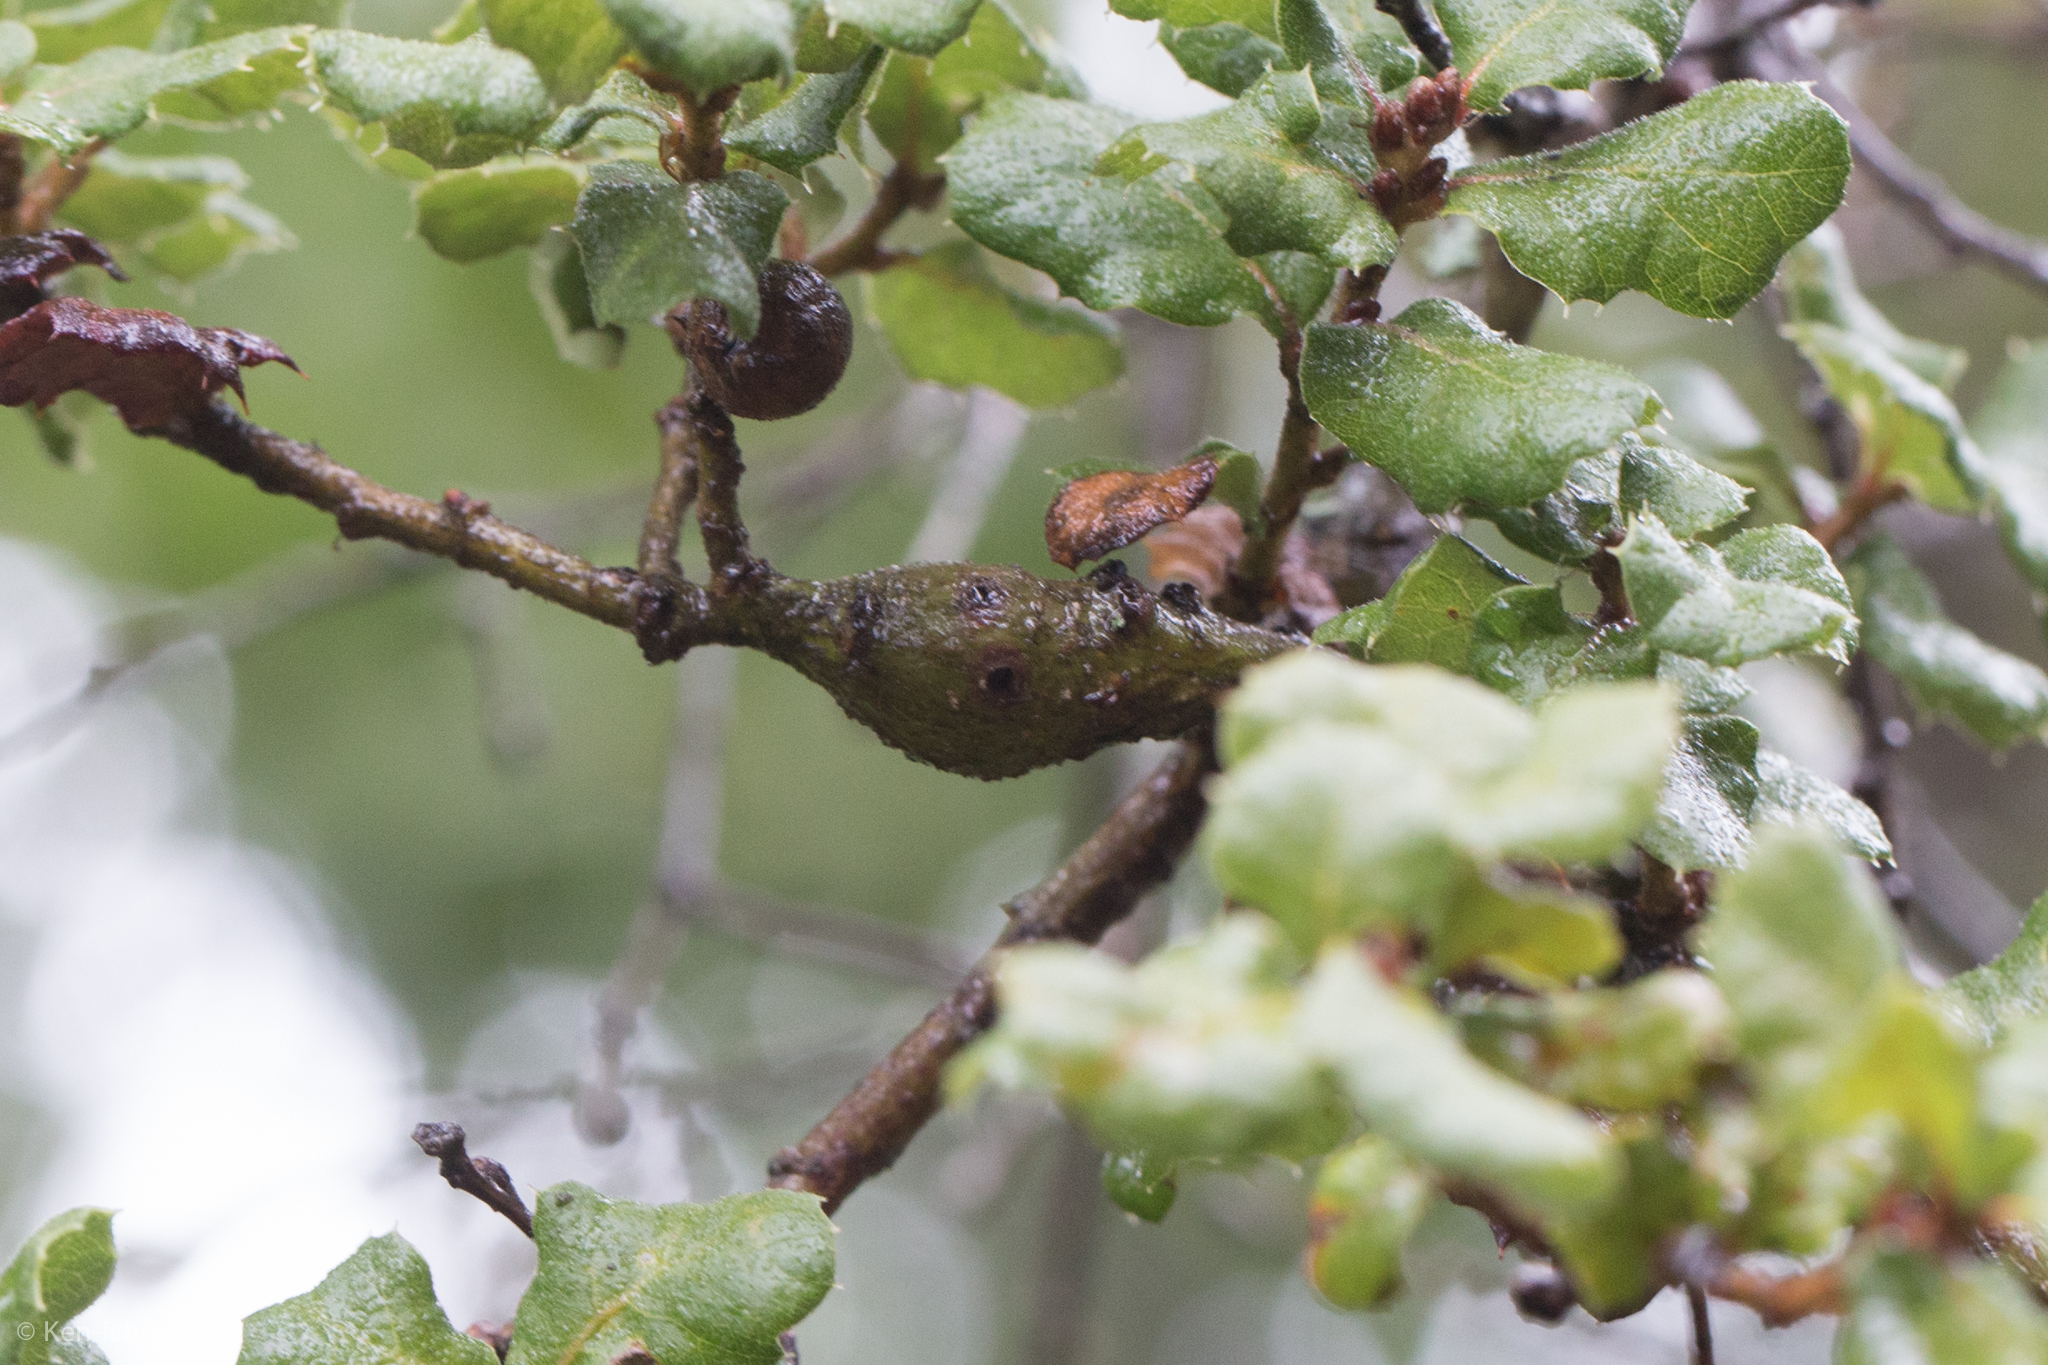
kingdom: Animalia
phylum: Arthropoda
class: Insecta
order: Hymenoptera
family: Cynipidae
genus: Andricus
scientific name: Andricus
